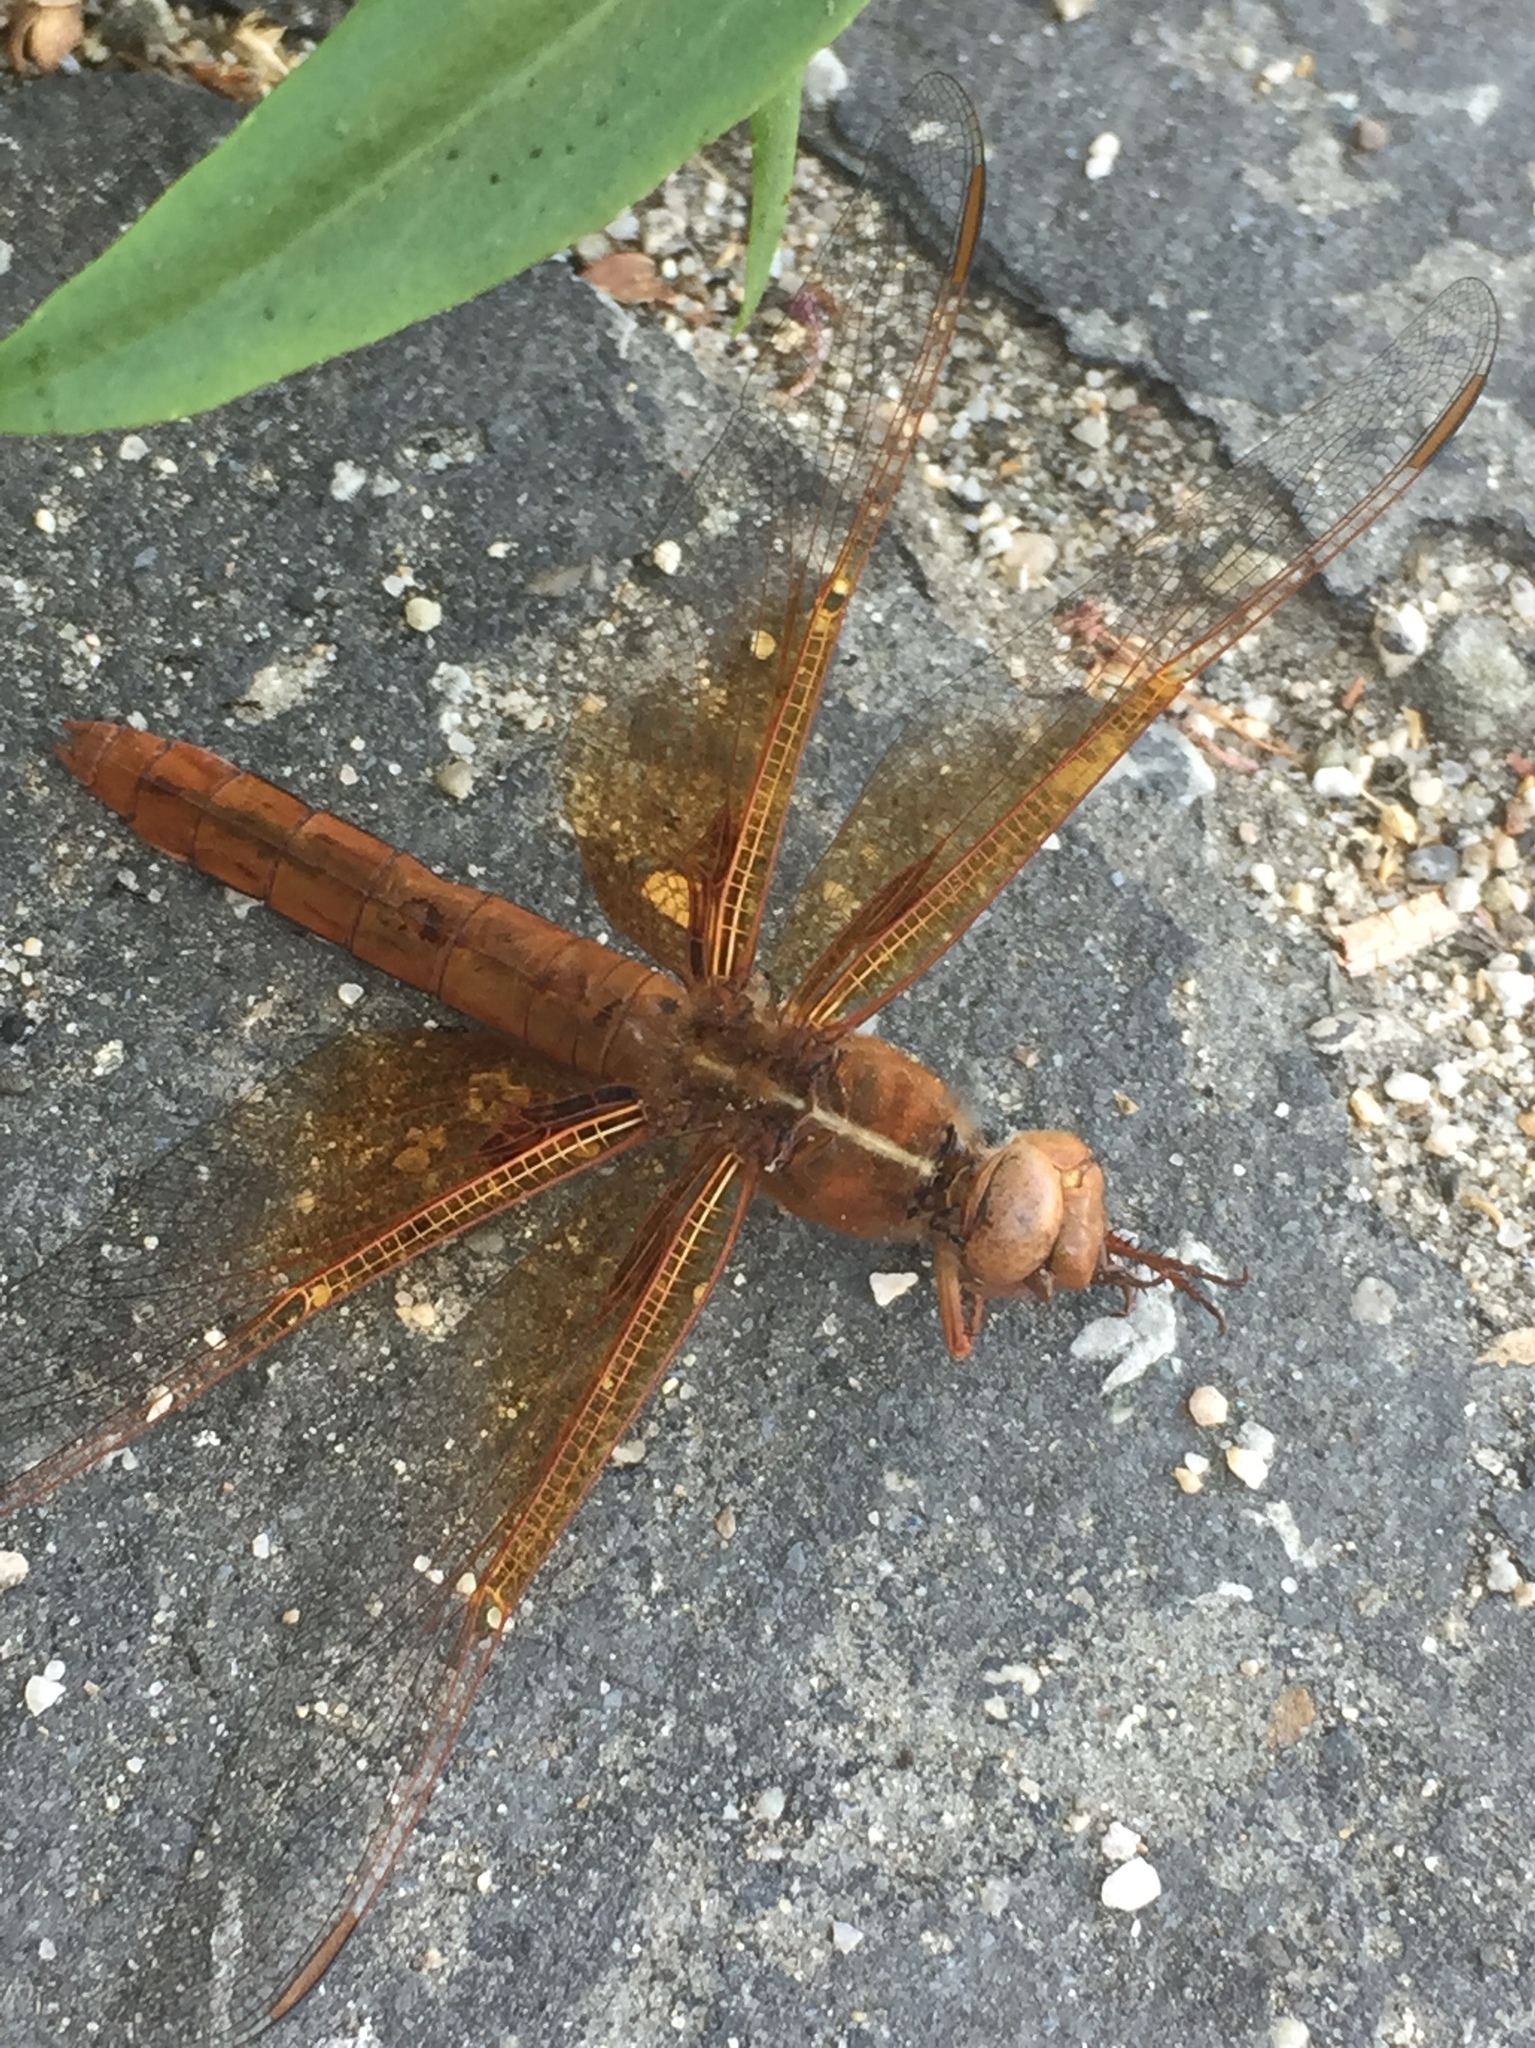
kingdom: Animalia
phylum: Arthropoda
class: Insecta
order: Odonata
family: Libellulidae
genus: Libellula
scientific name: Libellula saturata
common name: Flame skimmer
